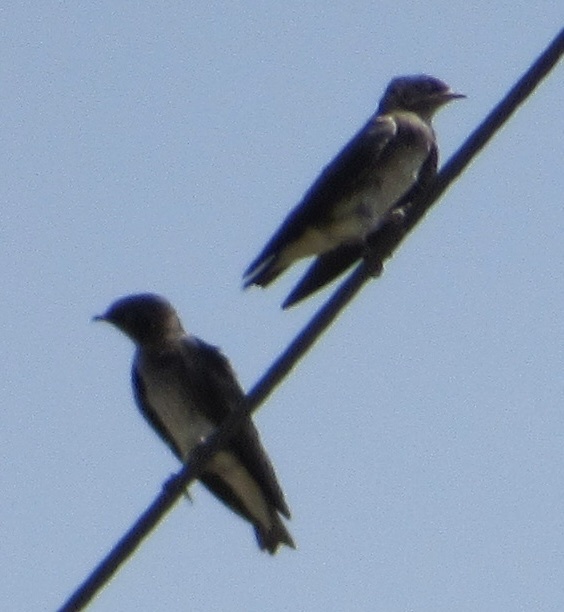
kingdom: Animalia
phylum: Chordata
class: Aves
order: Passeriformes
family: Hirundinidae
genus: Progne
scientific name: Progne subis
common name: Purple martin
